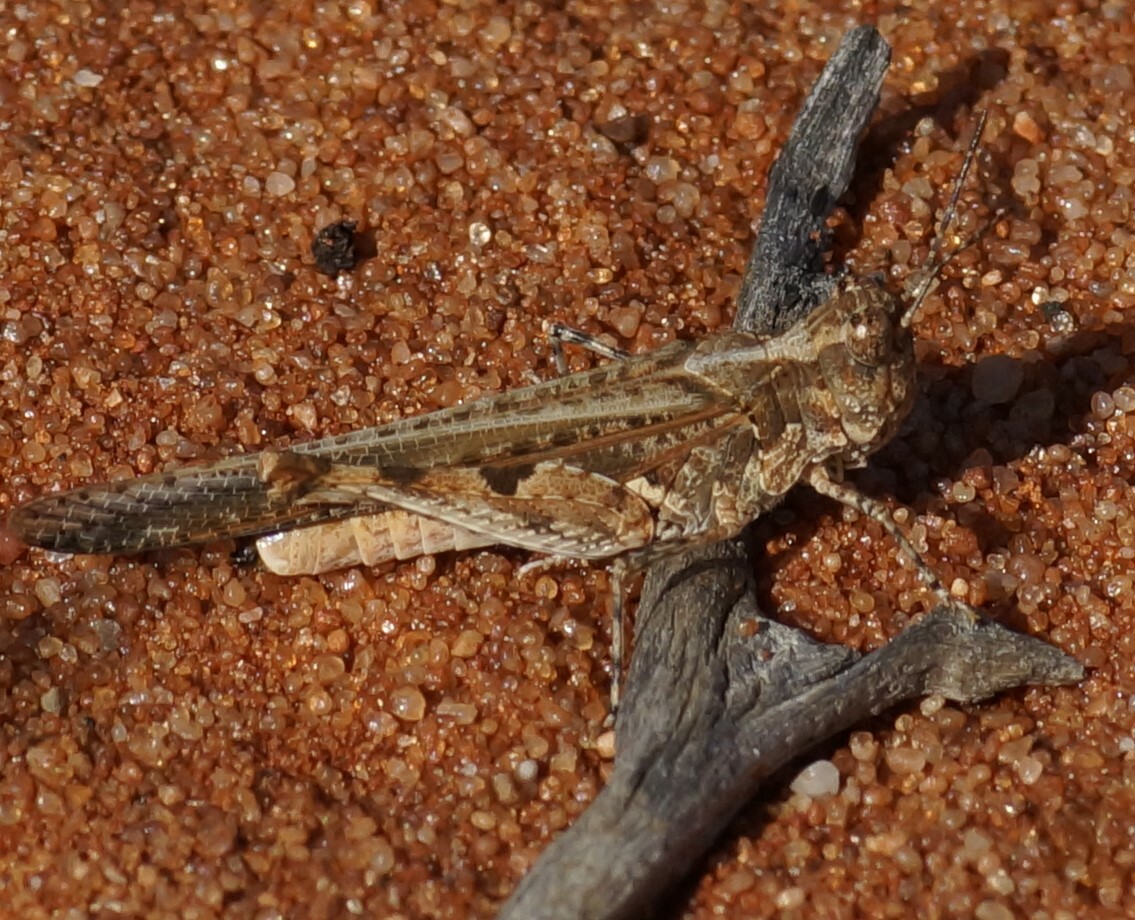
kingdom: Animalia
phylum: Arthropoda
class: Insecta
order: Orthoptera
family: Acrididae
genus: Pycnostictus
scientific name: Pycnostictus seriatus
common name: Common bandwing
